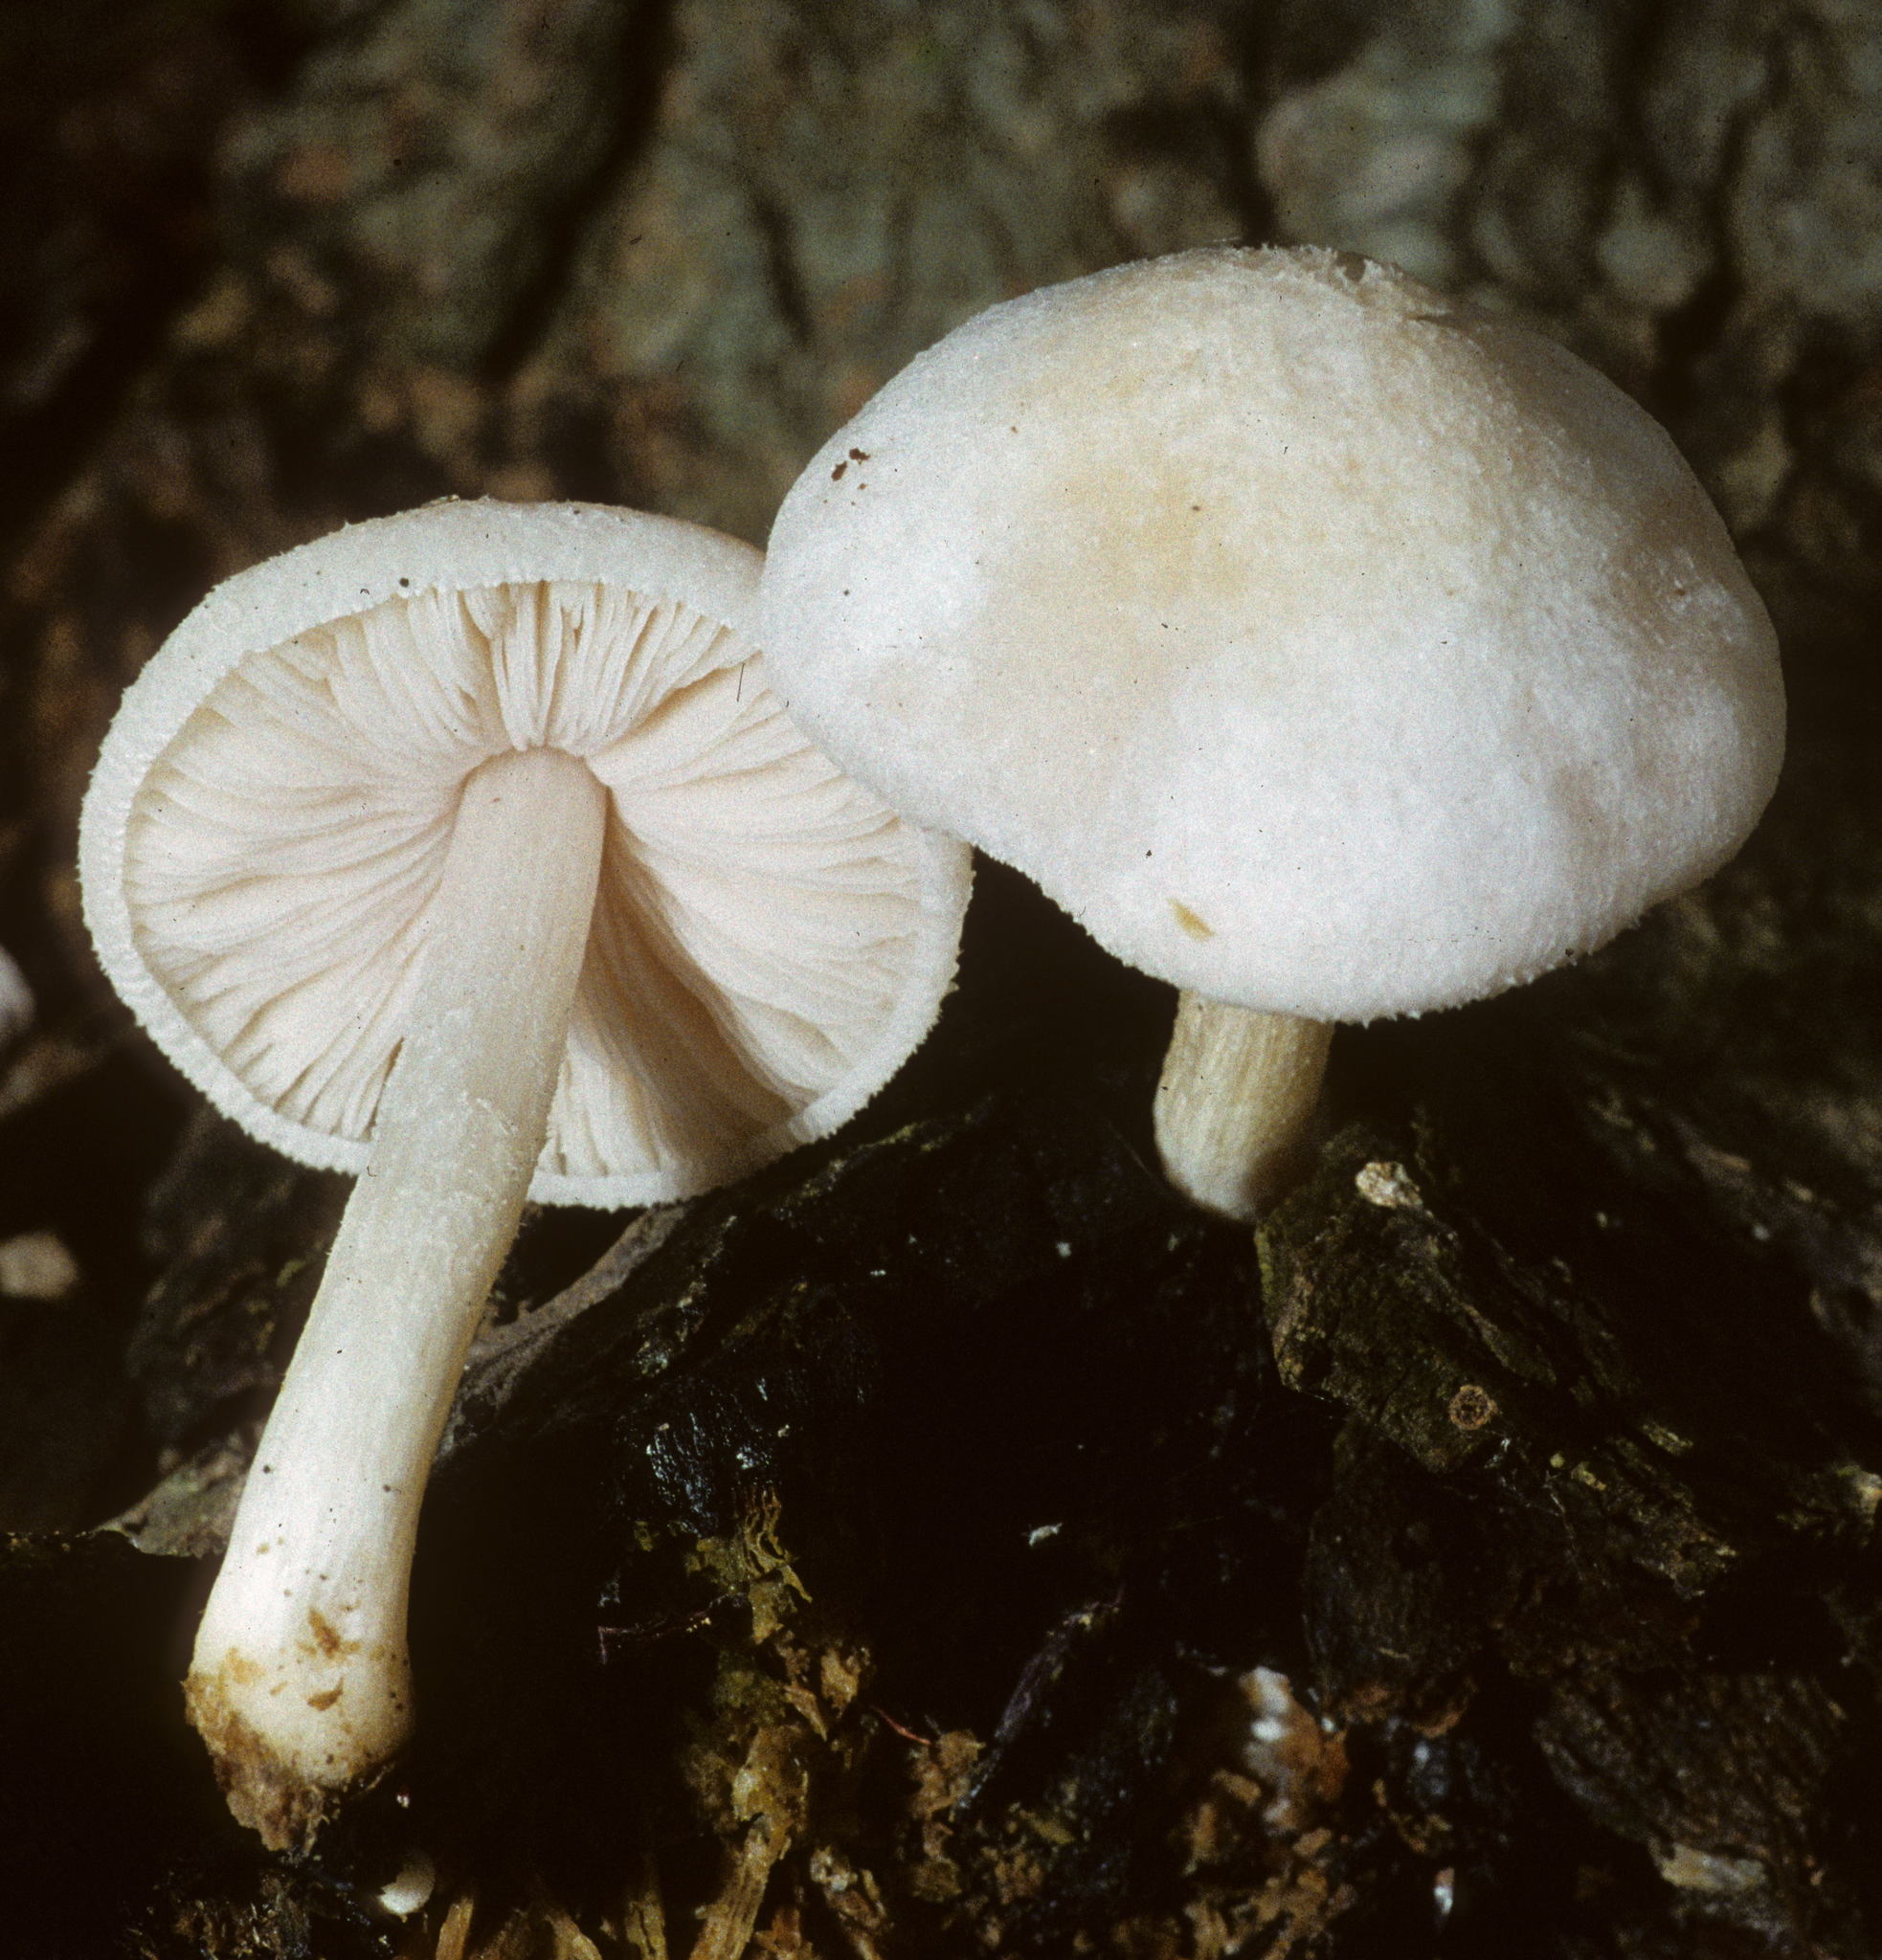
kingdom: Fungi
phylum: Basidiomycota
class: Agaricomycetes
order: Agaricales
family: Pluteaceae
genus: Pluteus
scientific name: Pluteus tomentosulus
